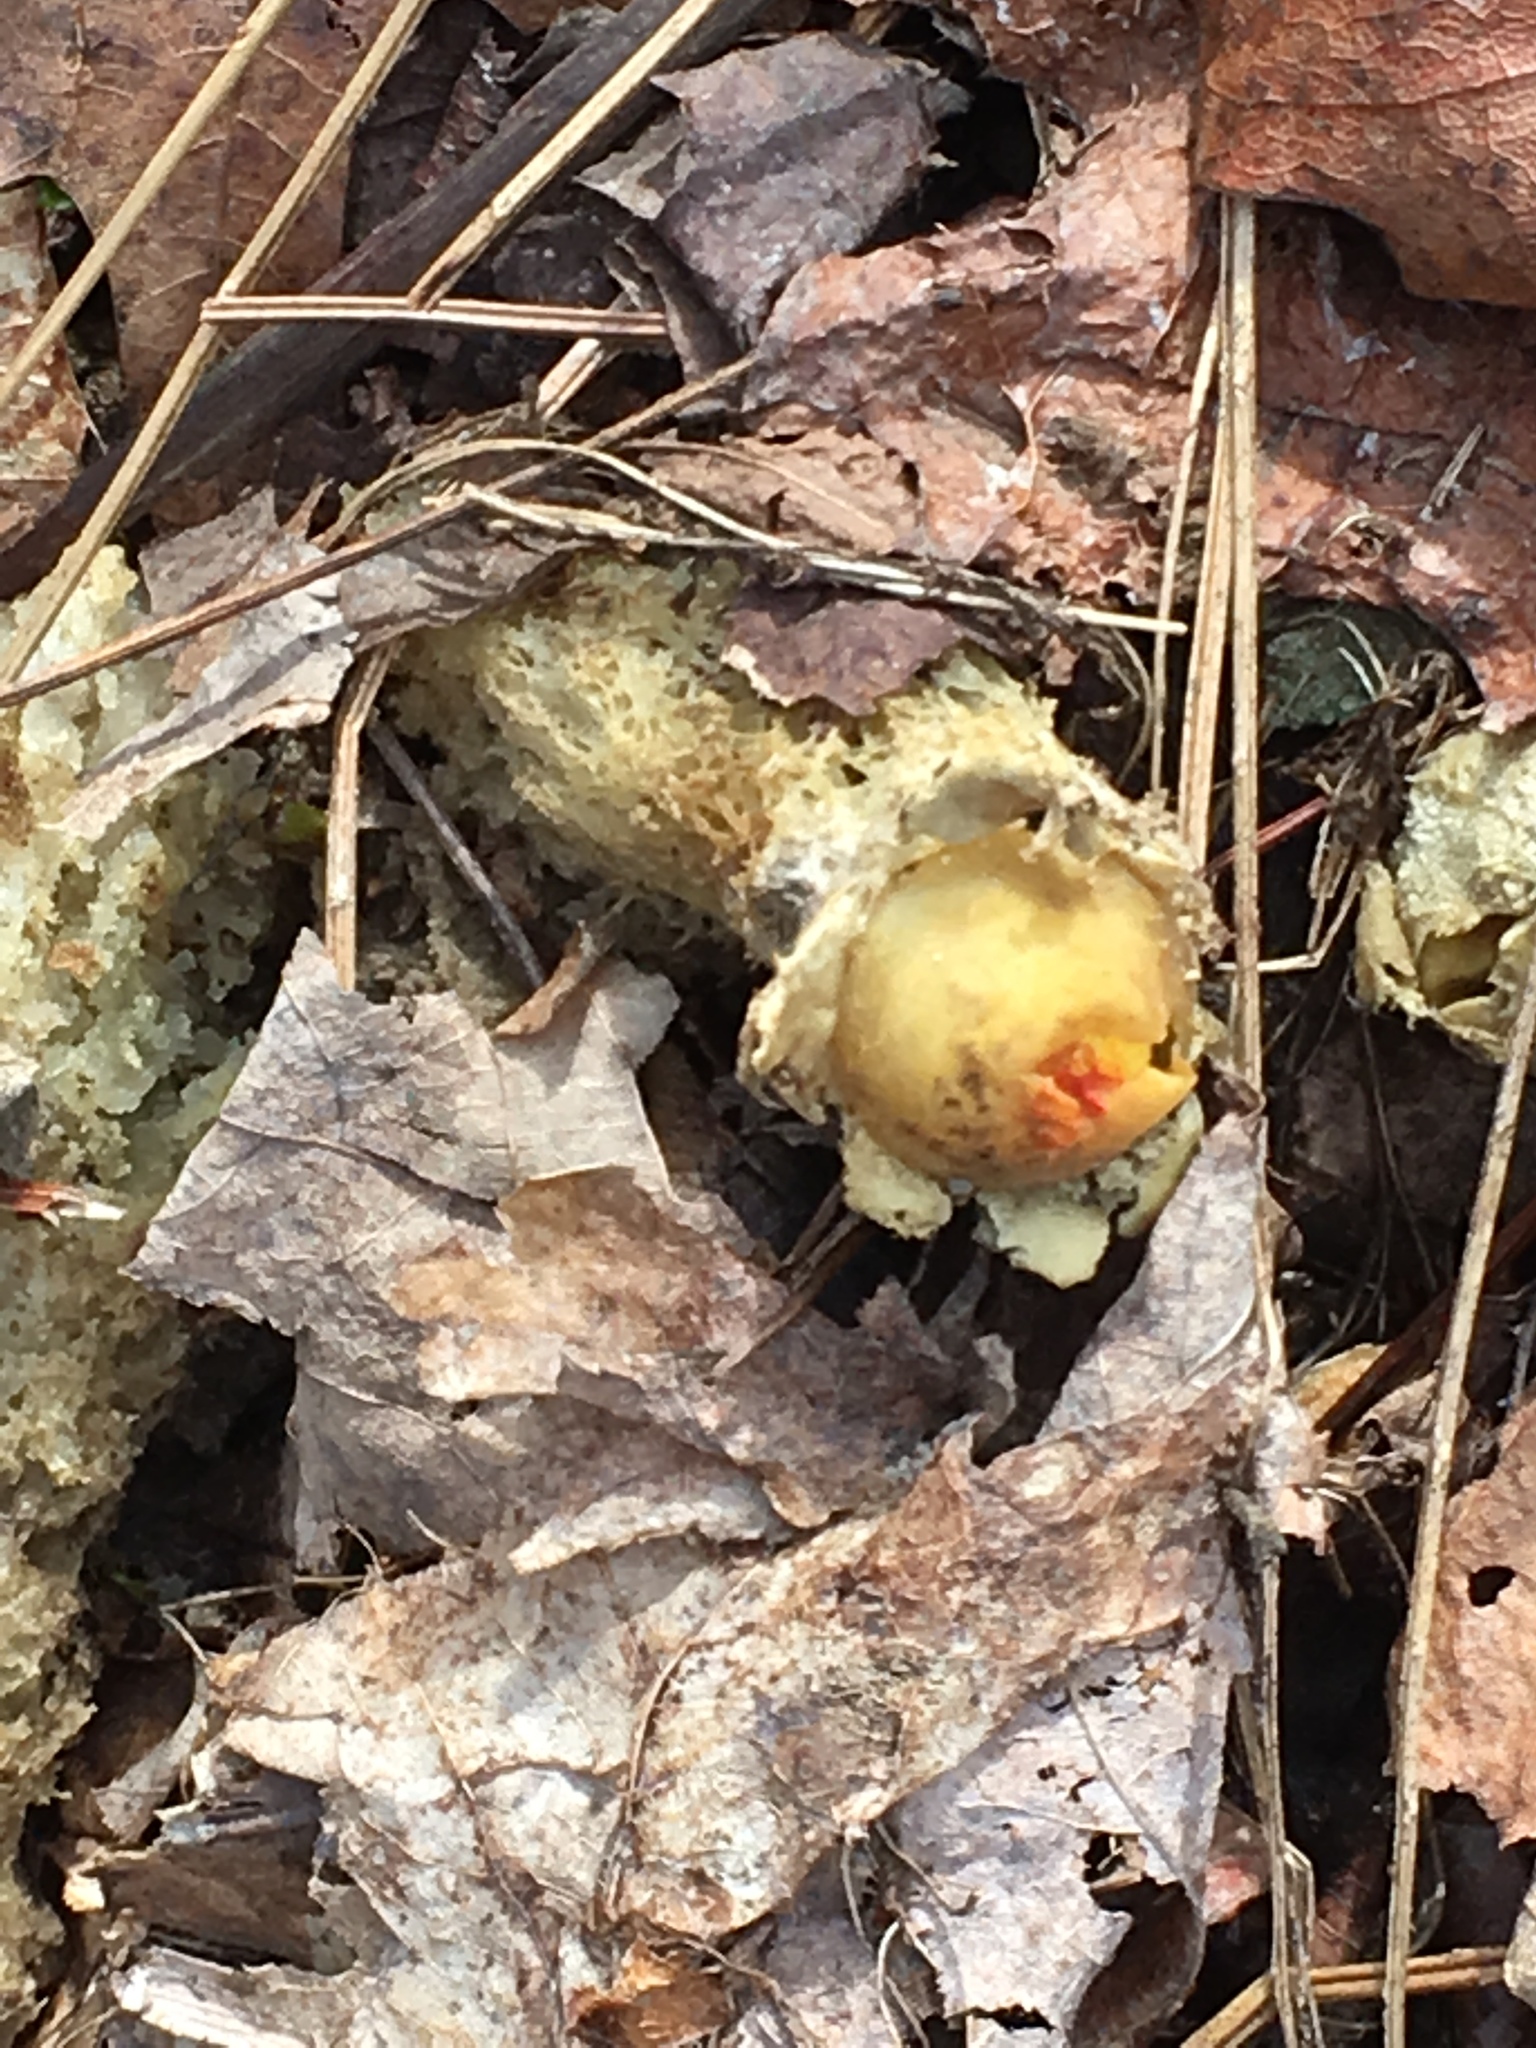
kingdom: Fungi
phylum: Basidiomycota
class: Agaricomycetes
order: Boletales
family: Calostomataceae
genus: Calostoma
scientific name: Calostoma lutescens
